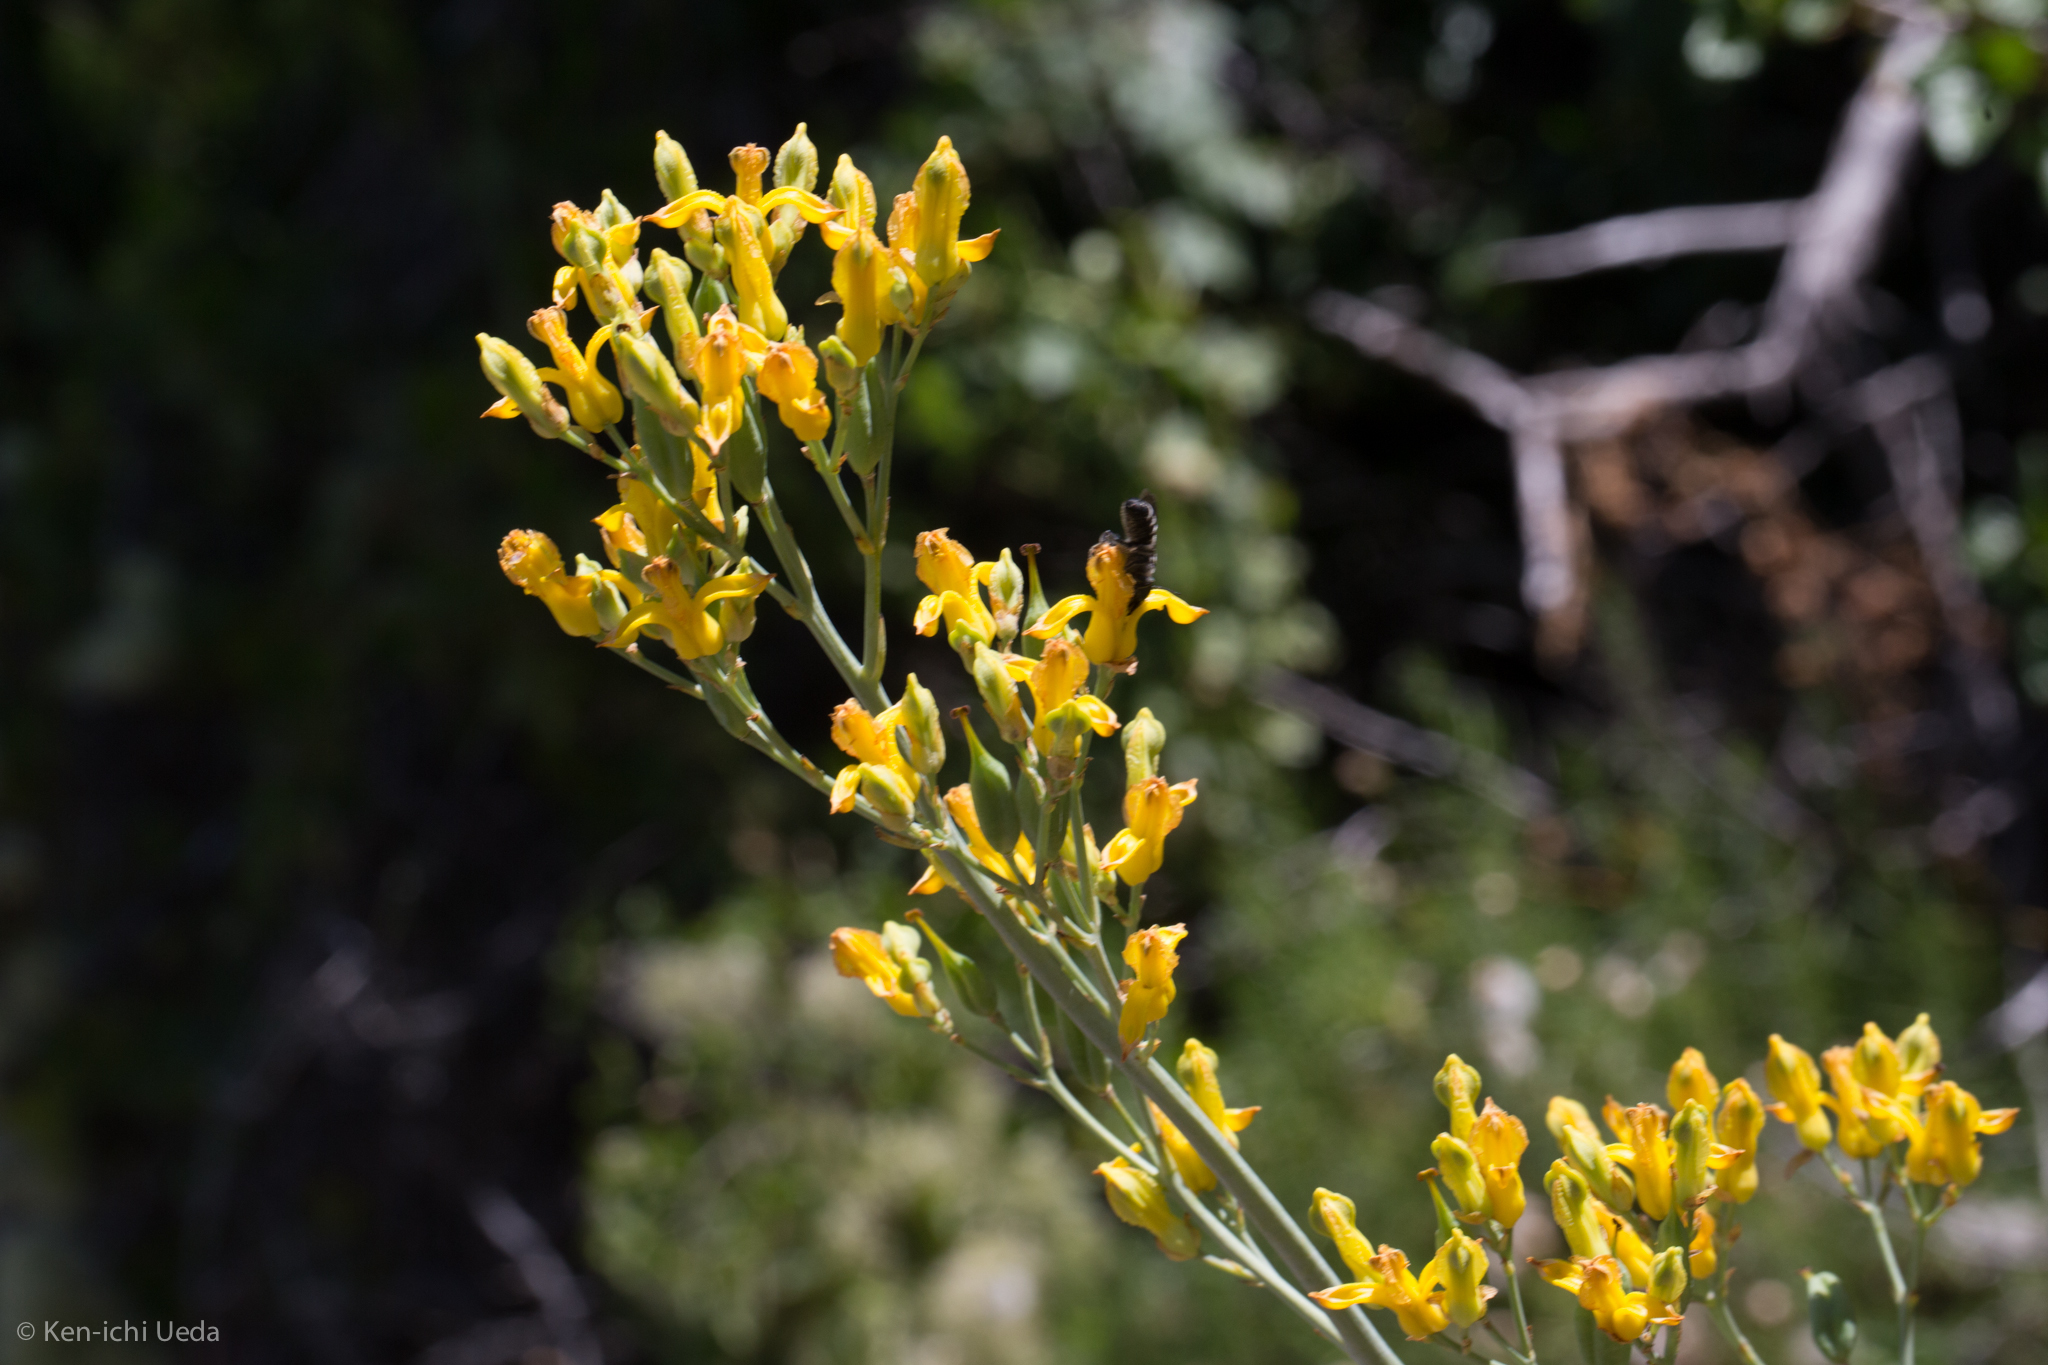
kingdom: Plantae
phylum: Tracheophyta
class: Magnoliopsida
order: Ranunculales
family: Papaveraceae
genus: Ehrendorferia
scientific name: Ehrendorferia chrysantha
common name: Golden eardrops
